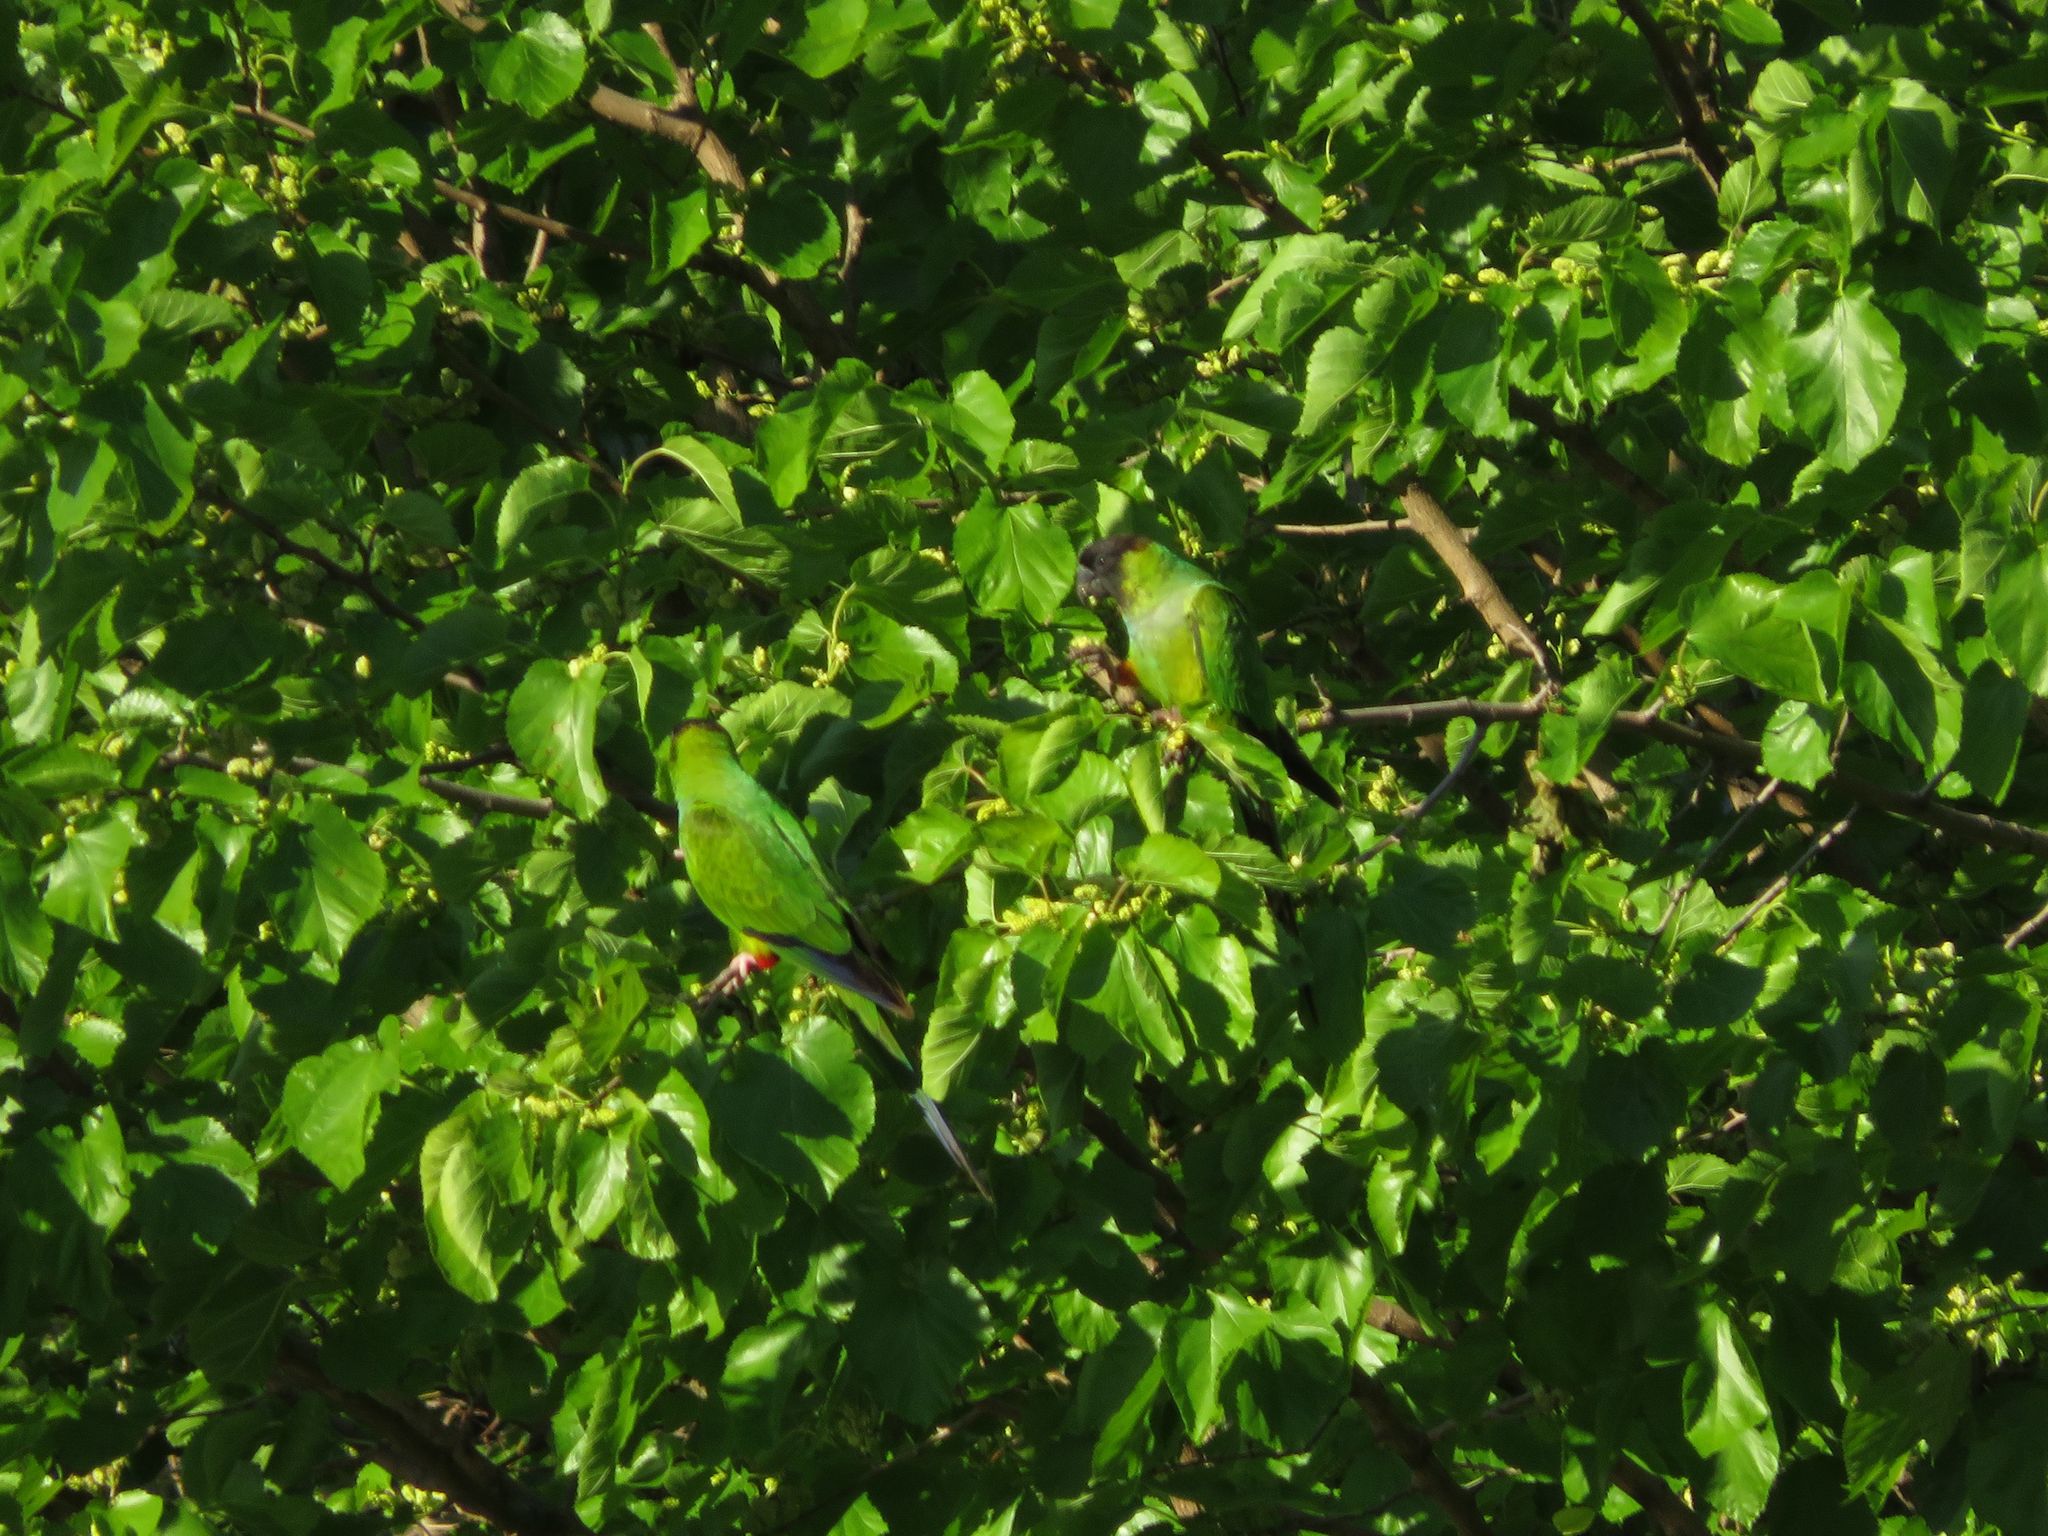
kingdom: Animalia
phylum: Chordata
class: Aves
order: Psittaciformes
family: Psittacidae
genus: Nandayus
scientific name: Nandayus nenday
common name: Nanday parakeet
